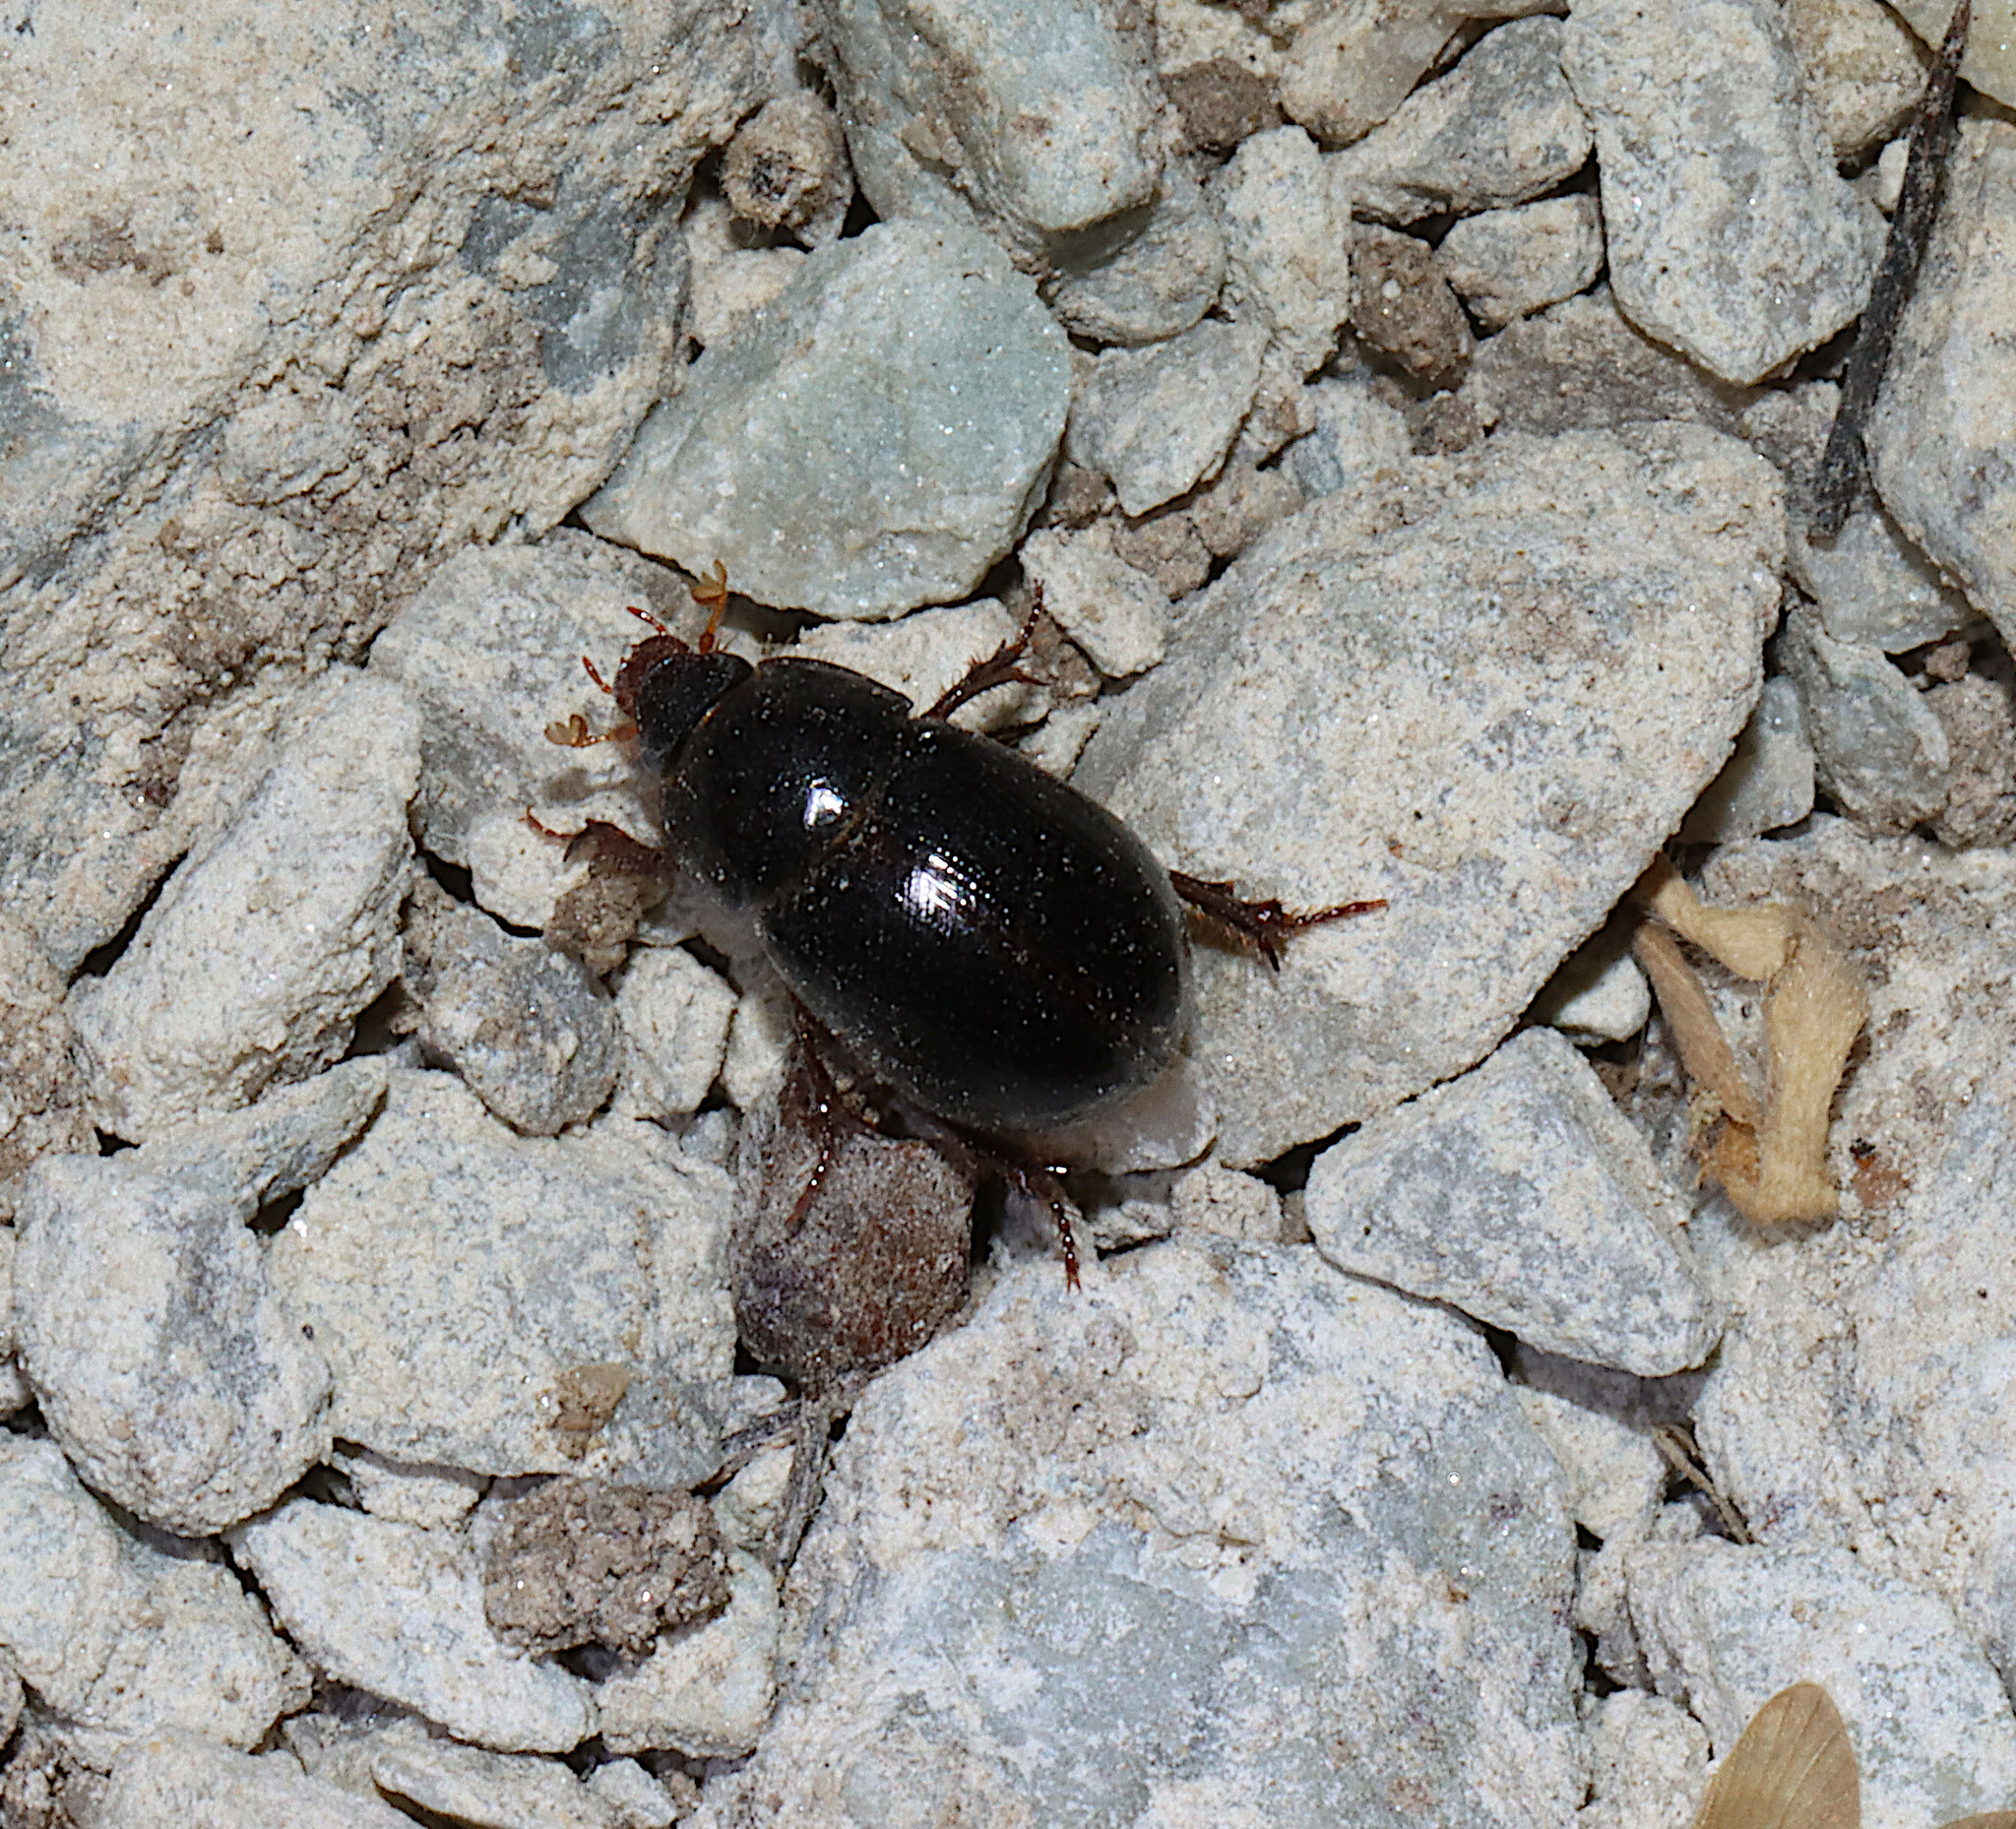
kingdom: Animalia
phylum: Arthropoda
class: Insecta
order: Coleoptera
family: Hybosoridae
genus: Hybosorus
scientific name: Hybosorus illigeri
